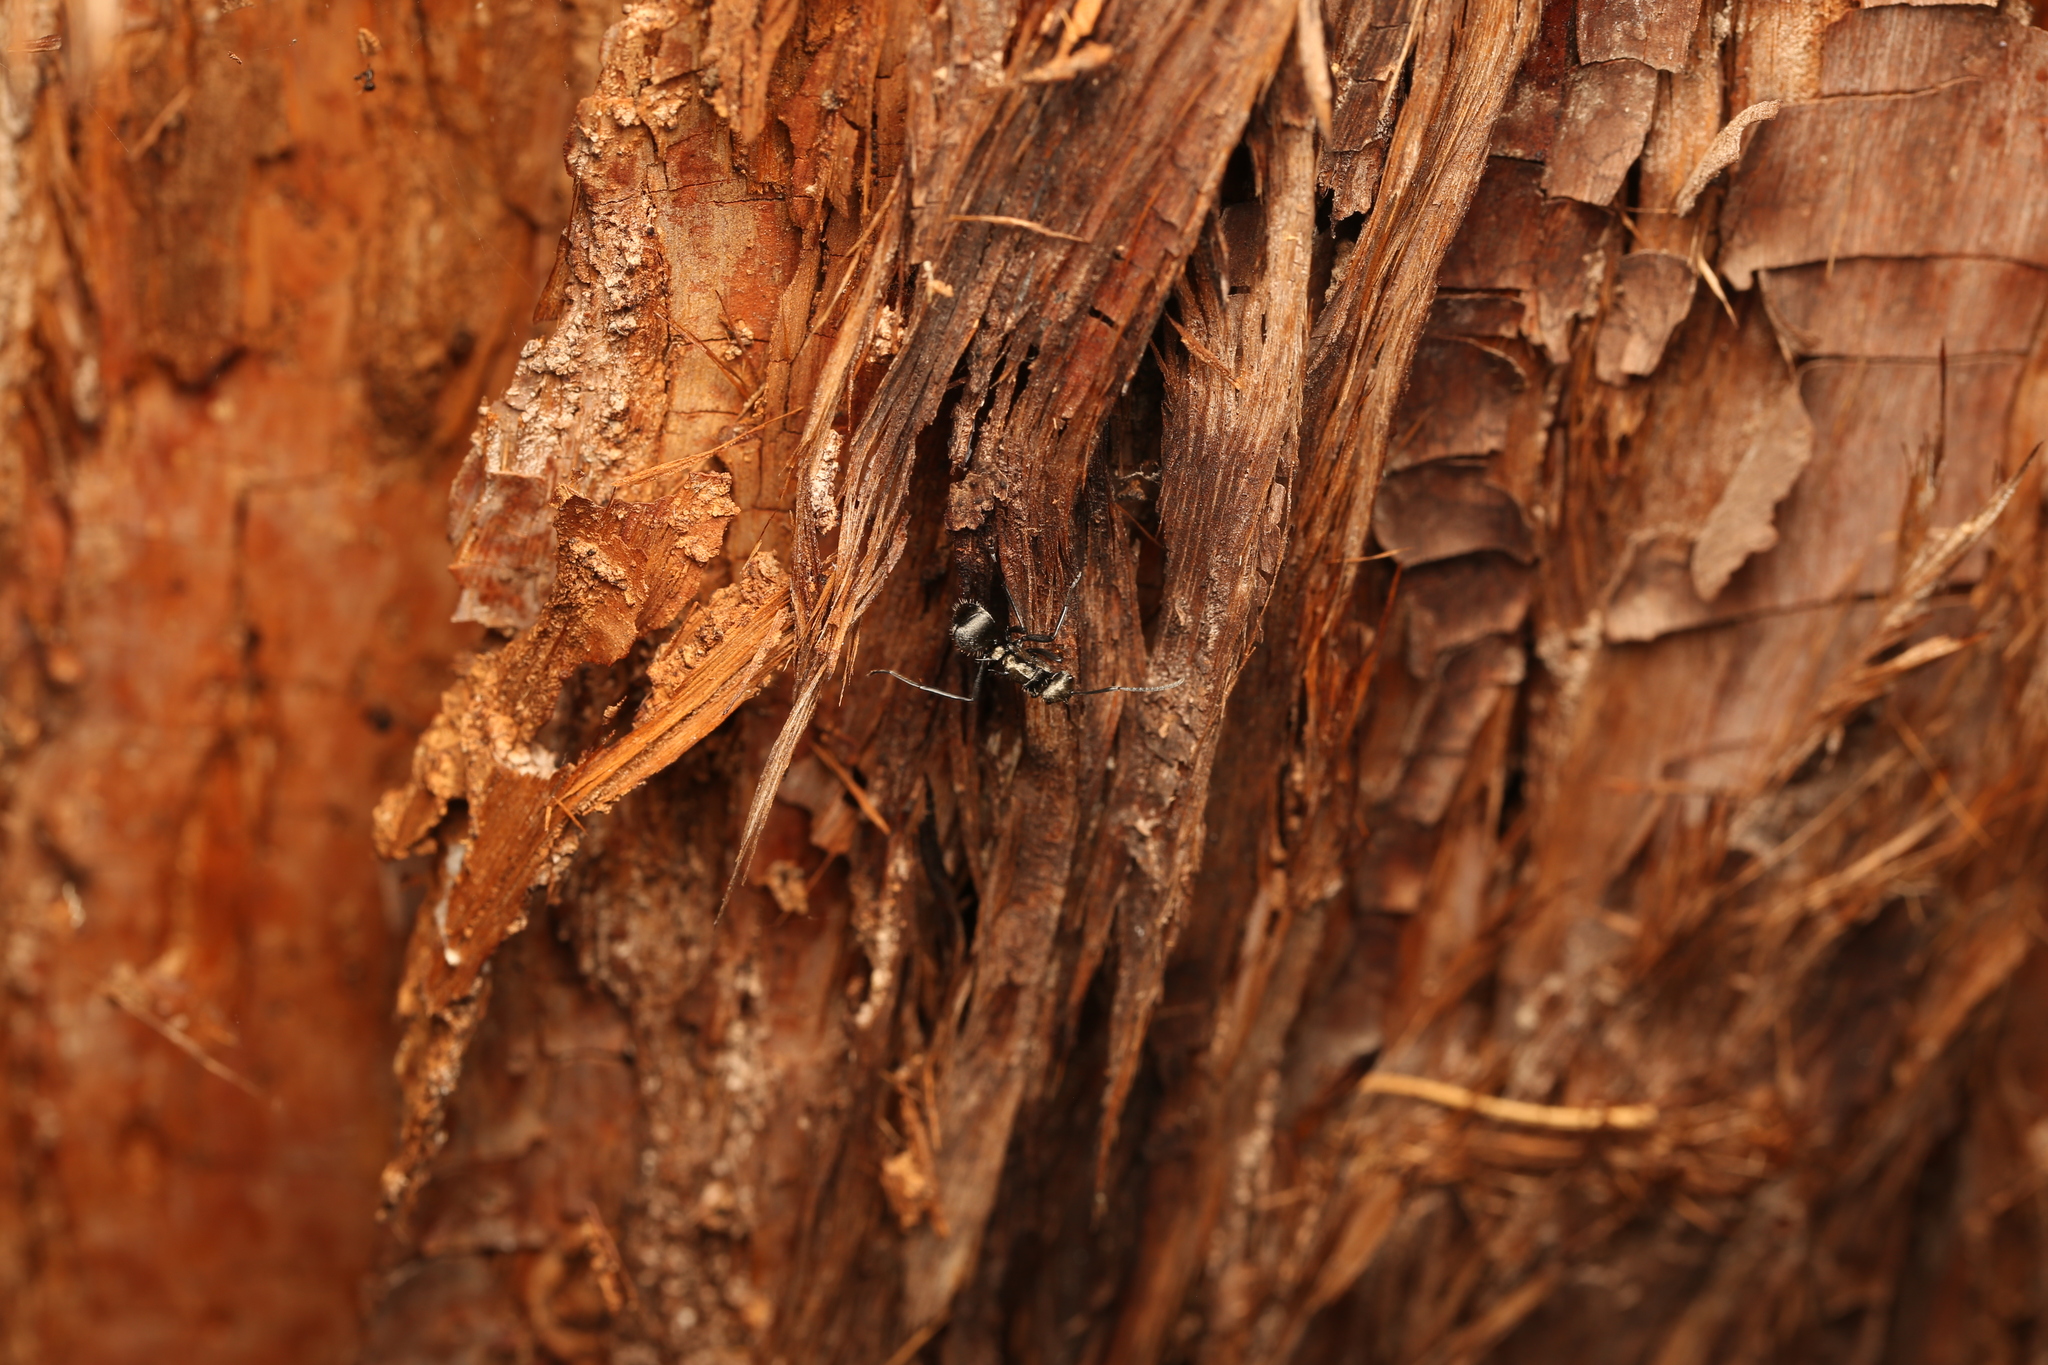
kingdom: Animalia
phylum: Arthropoda
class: Insecta
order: Hymenoptera
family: Formicidae
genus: Polyrhachis
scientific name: Polyrhachis daemeli
